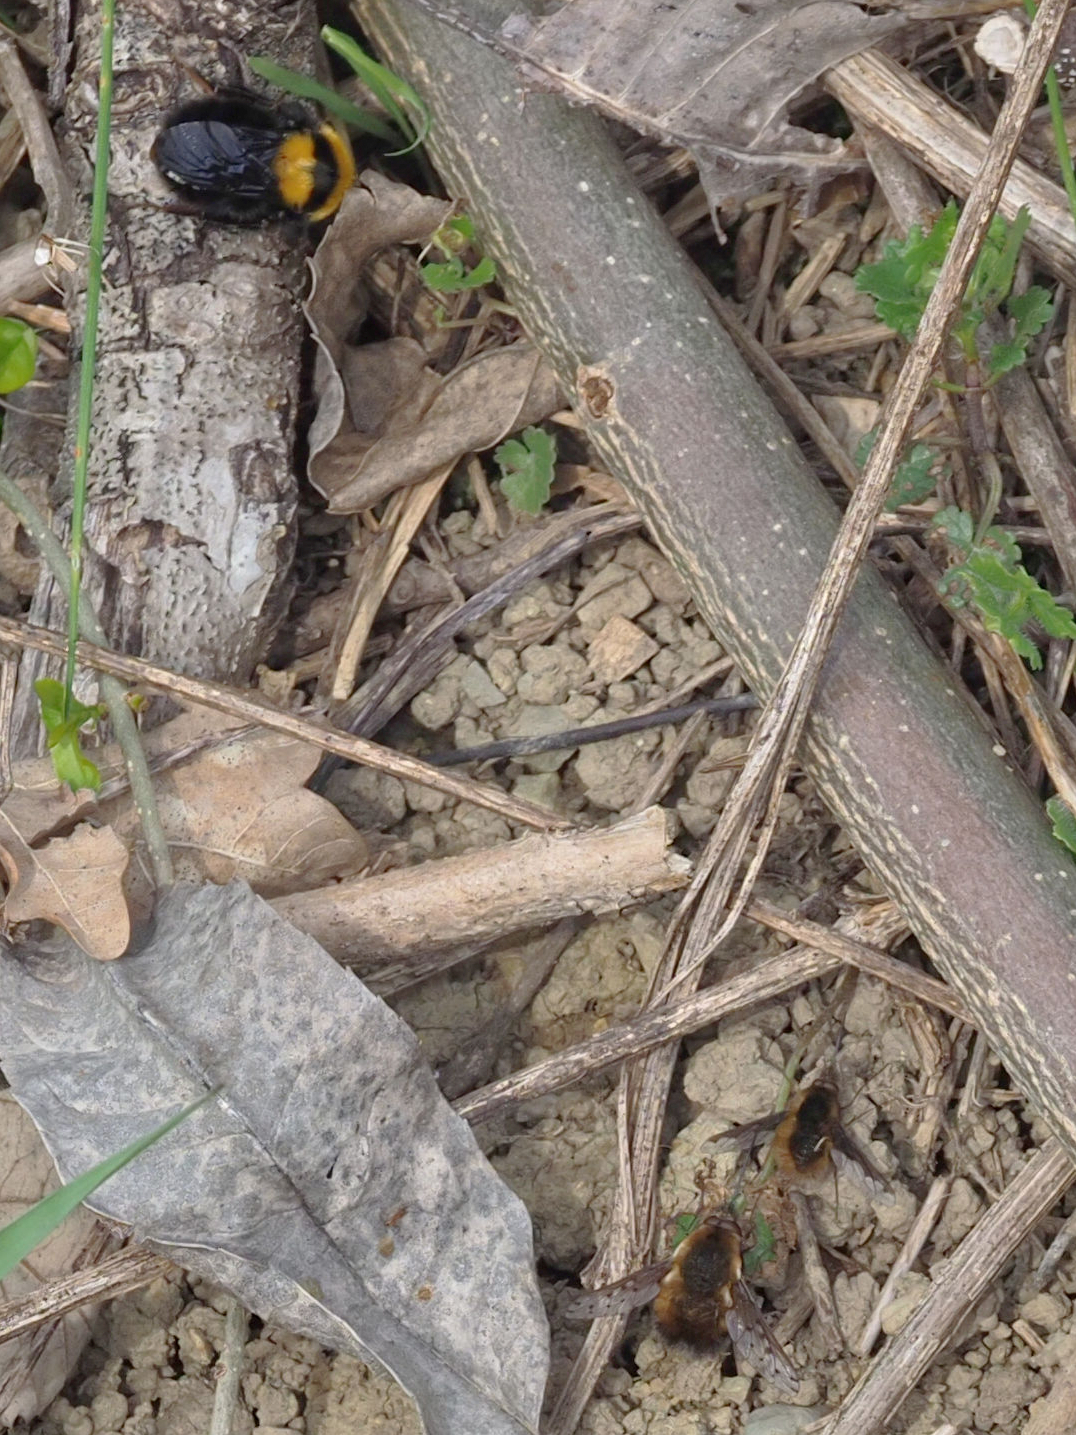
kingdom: Animalia
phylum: Arthropoda
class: Insecta
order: Hymenoptera
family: Apidae
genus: Bombus
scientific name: Bombus argillaceus
